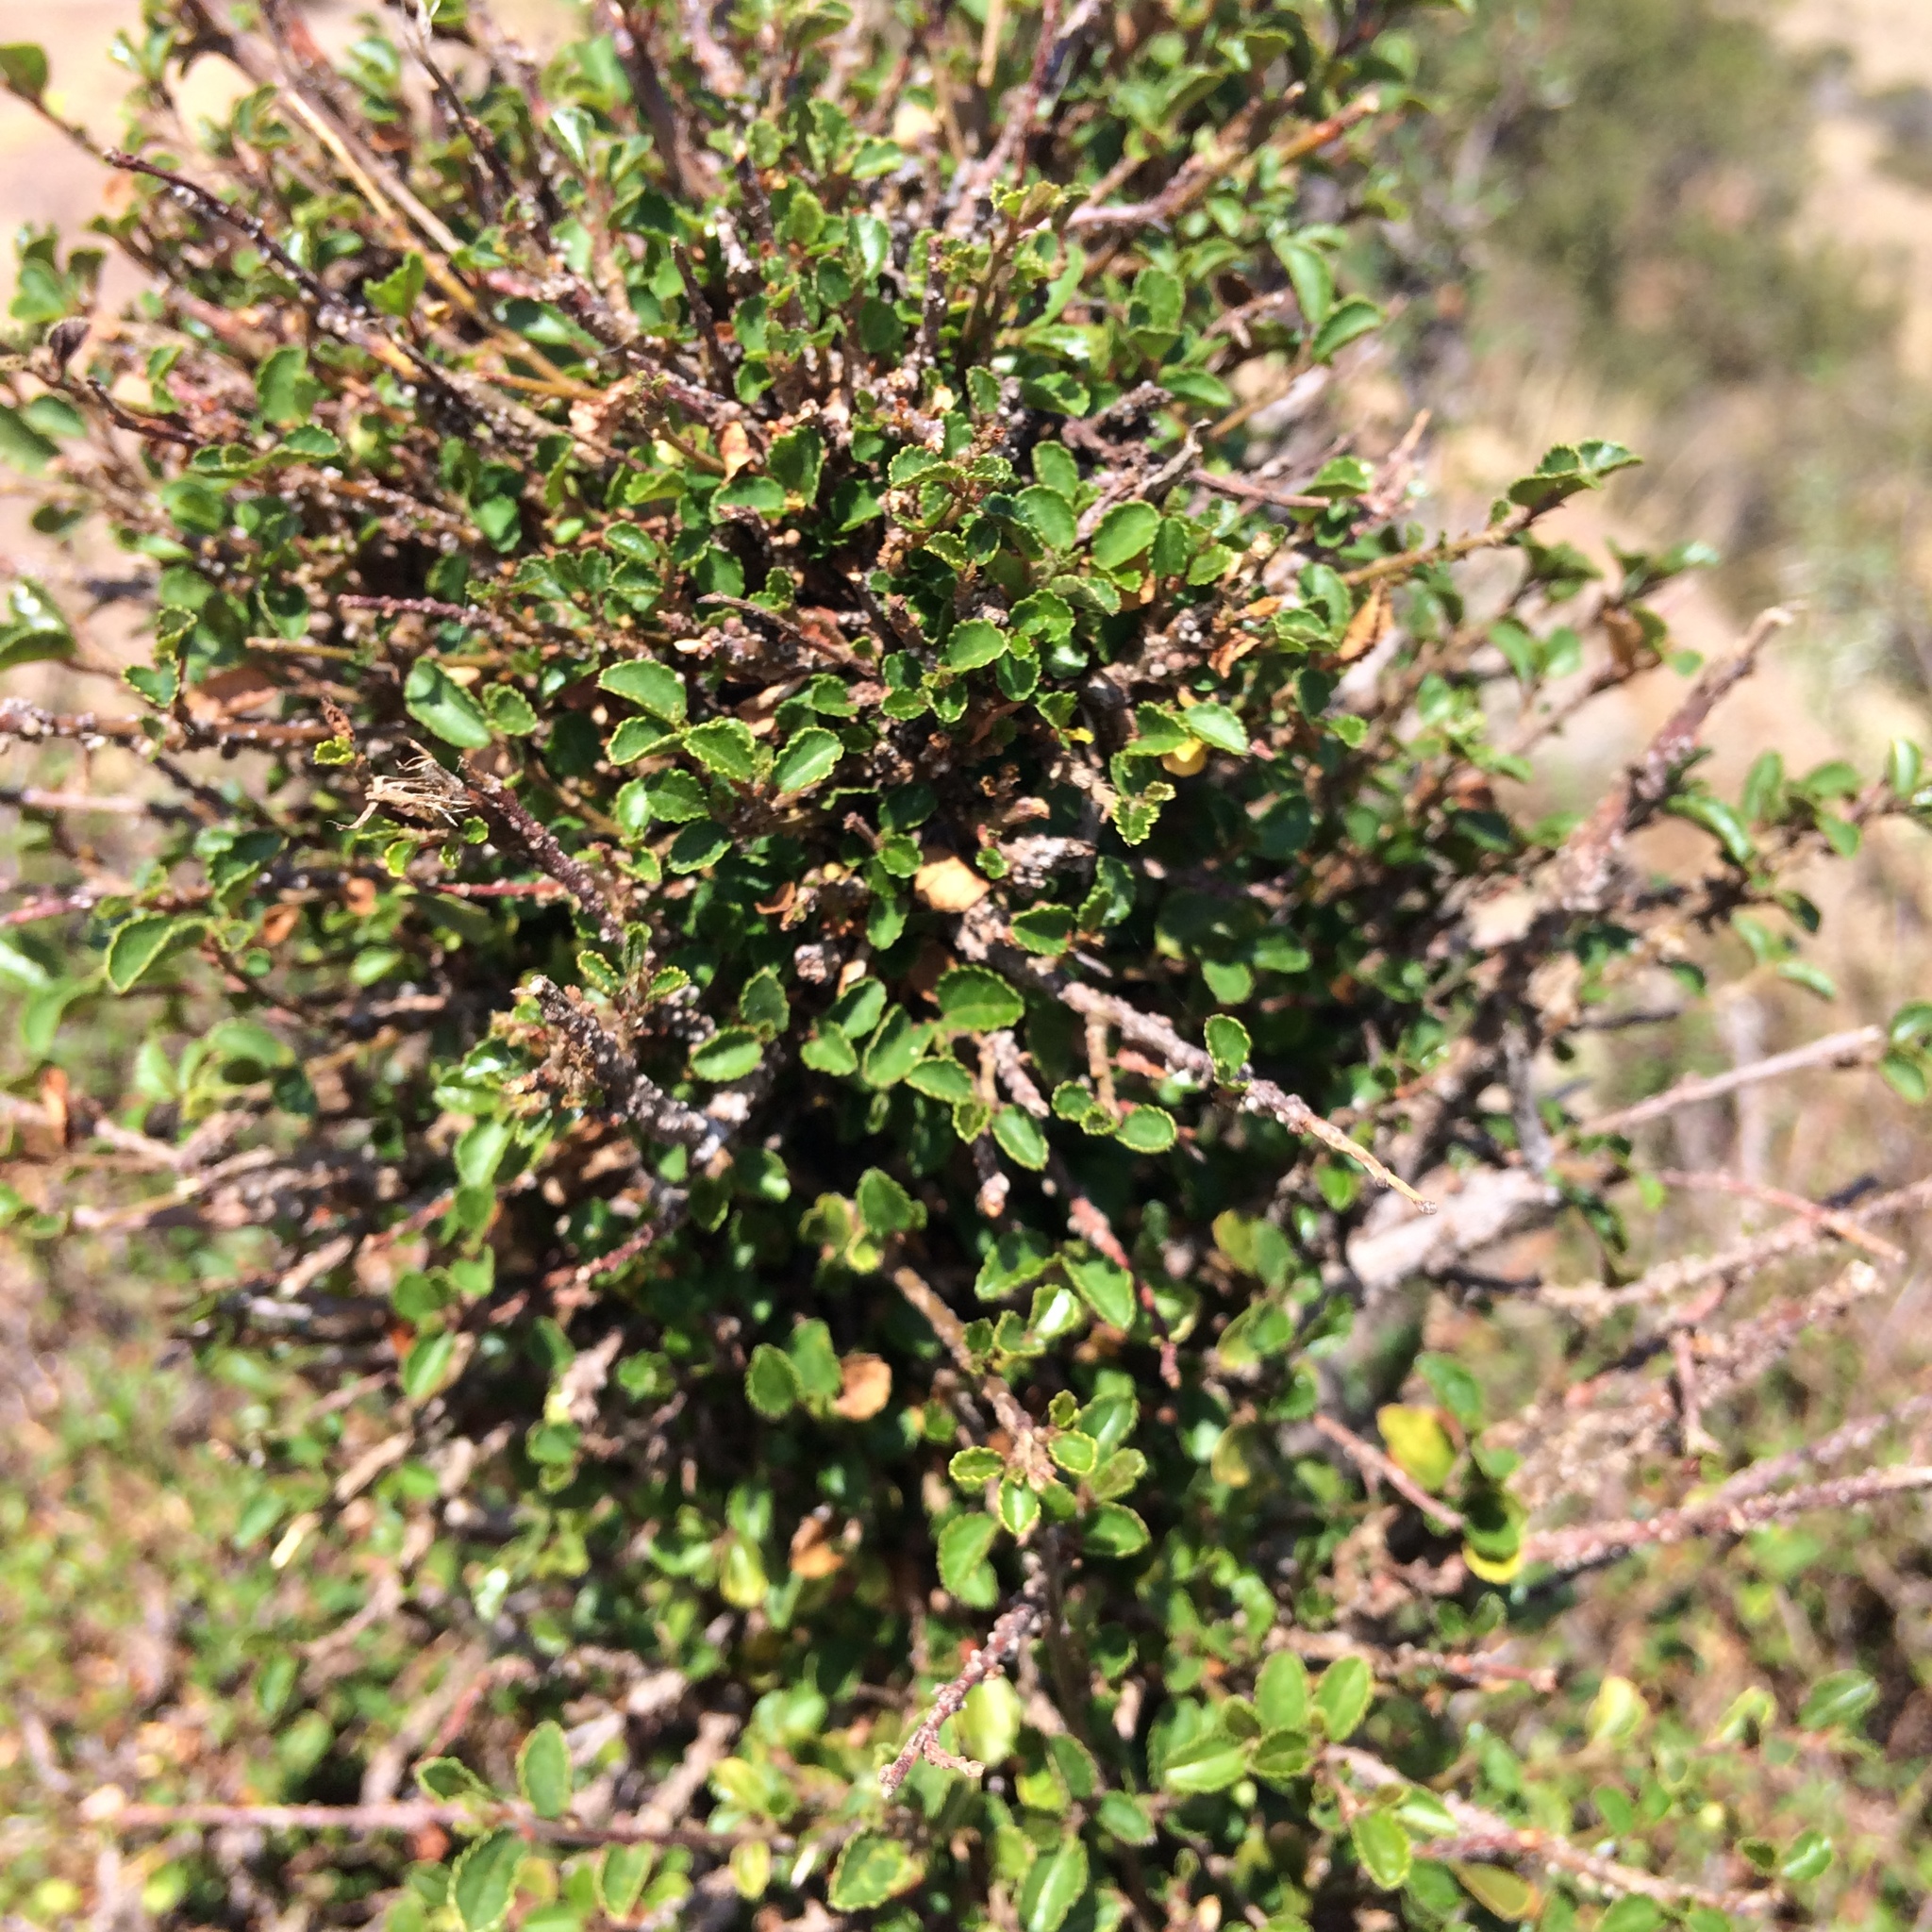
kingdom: Plantae
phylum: Tracheophyta
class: Magnoliopsida
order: Malvales
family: Malvaceae
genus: Grewia
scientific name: Grewia robusta
